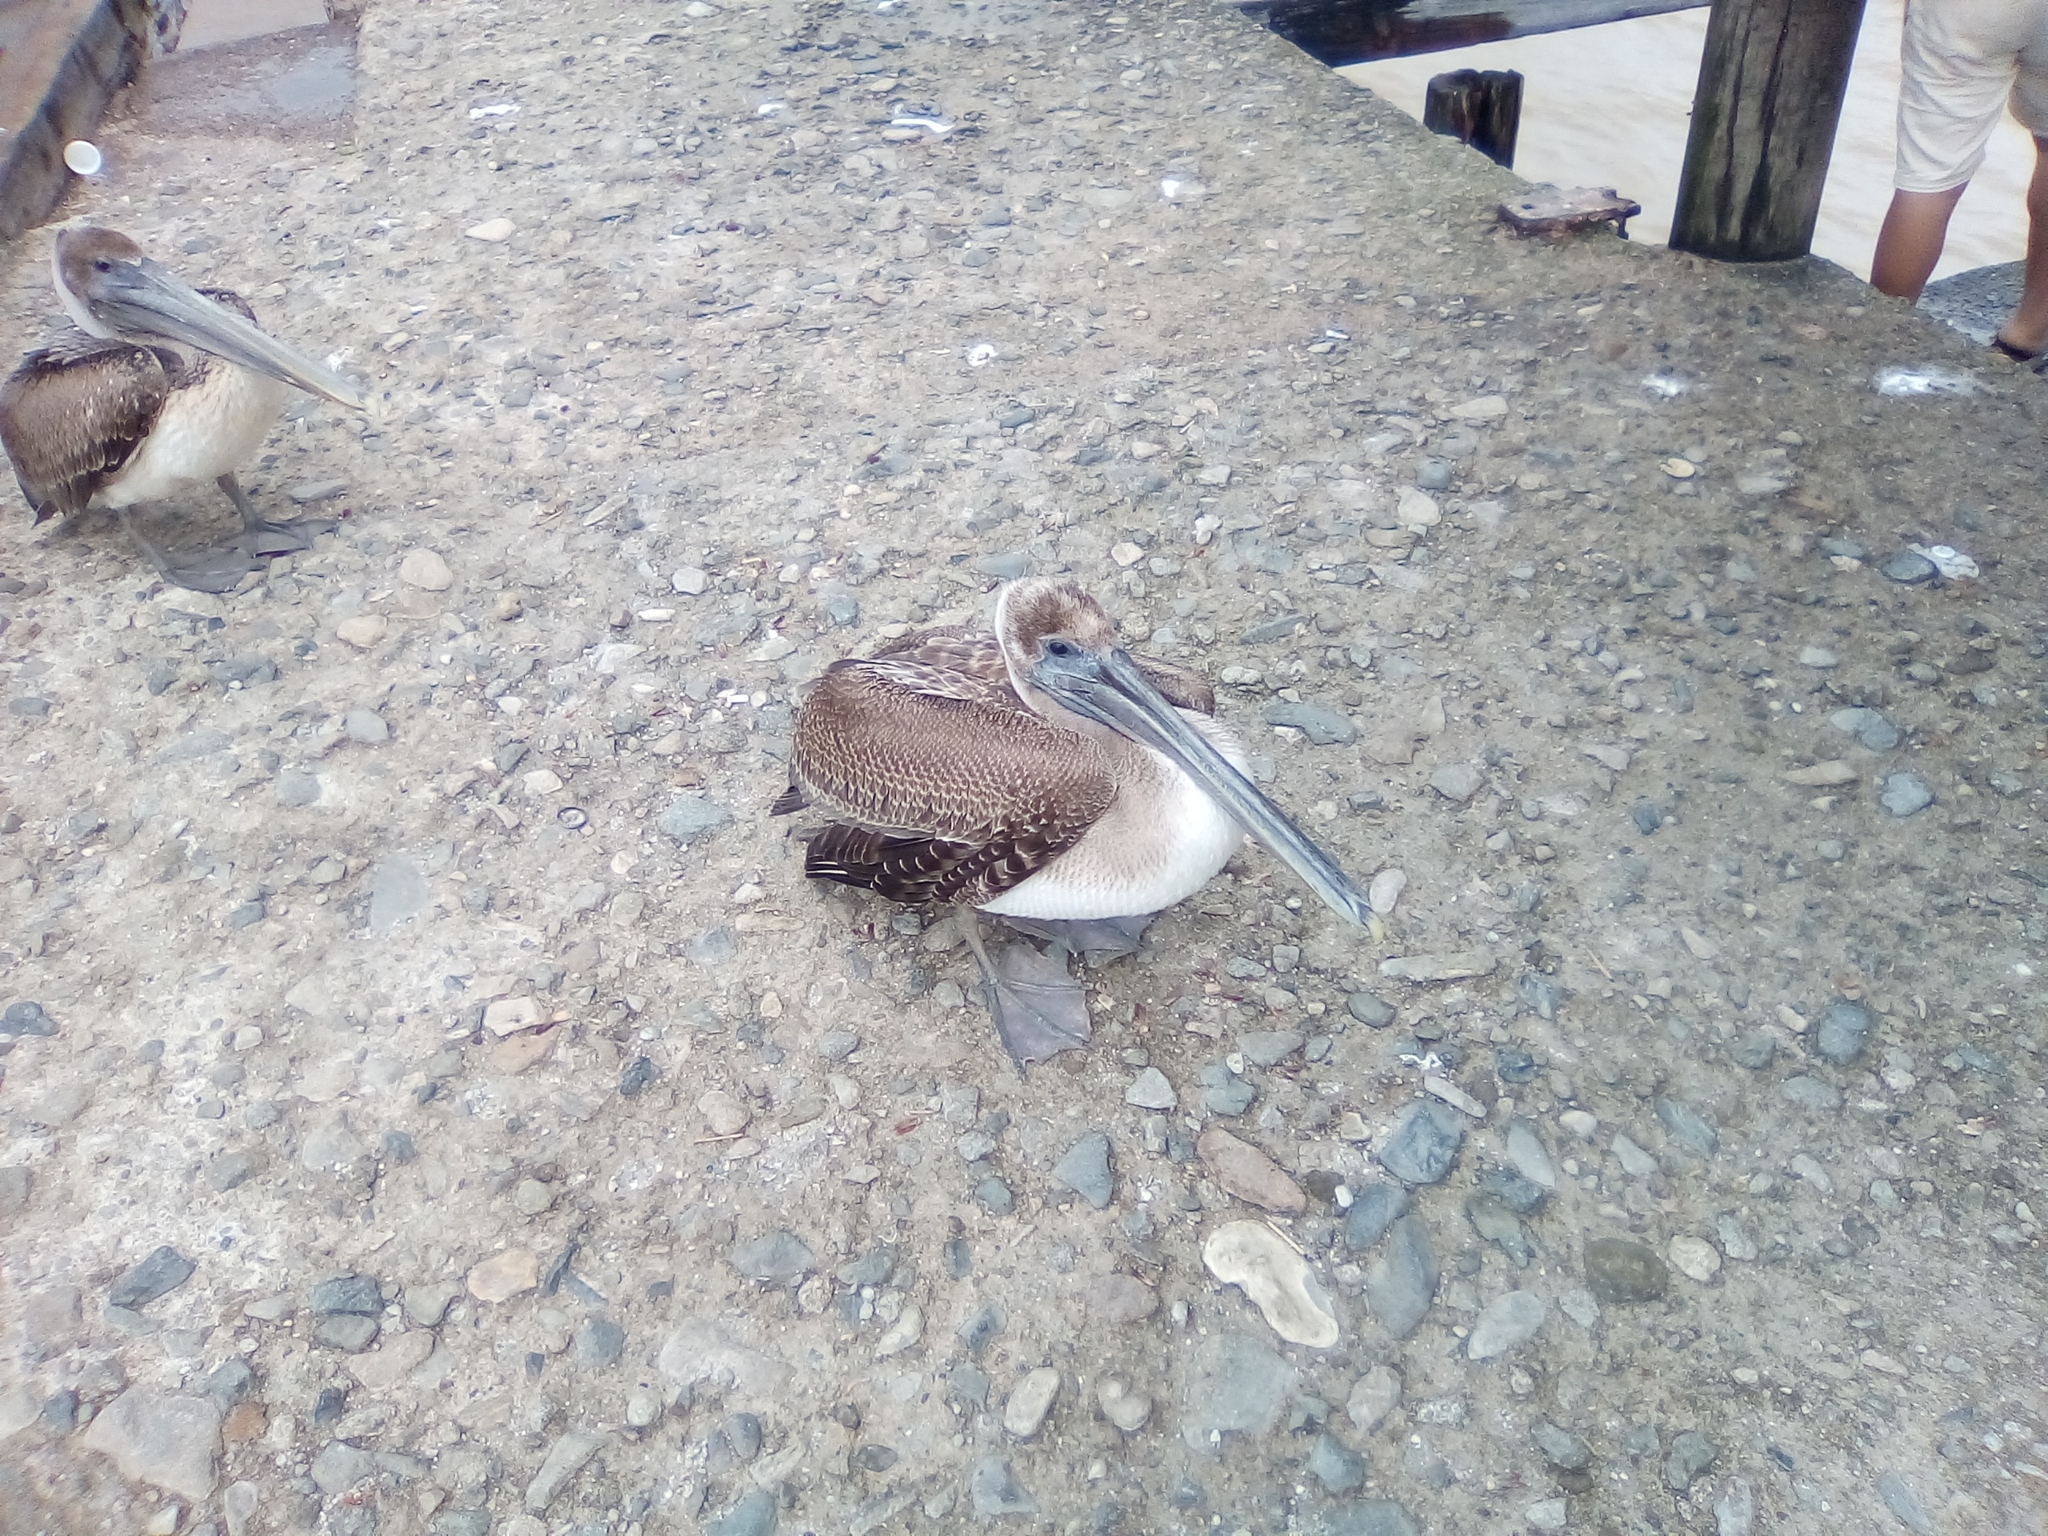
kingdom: Animalia
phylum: Chordata
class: Aves
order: Pelecaniformes
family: Pelecanidae
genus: Pelecanus
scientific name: Pelecanus occidentalis
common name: Brown pelican
